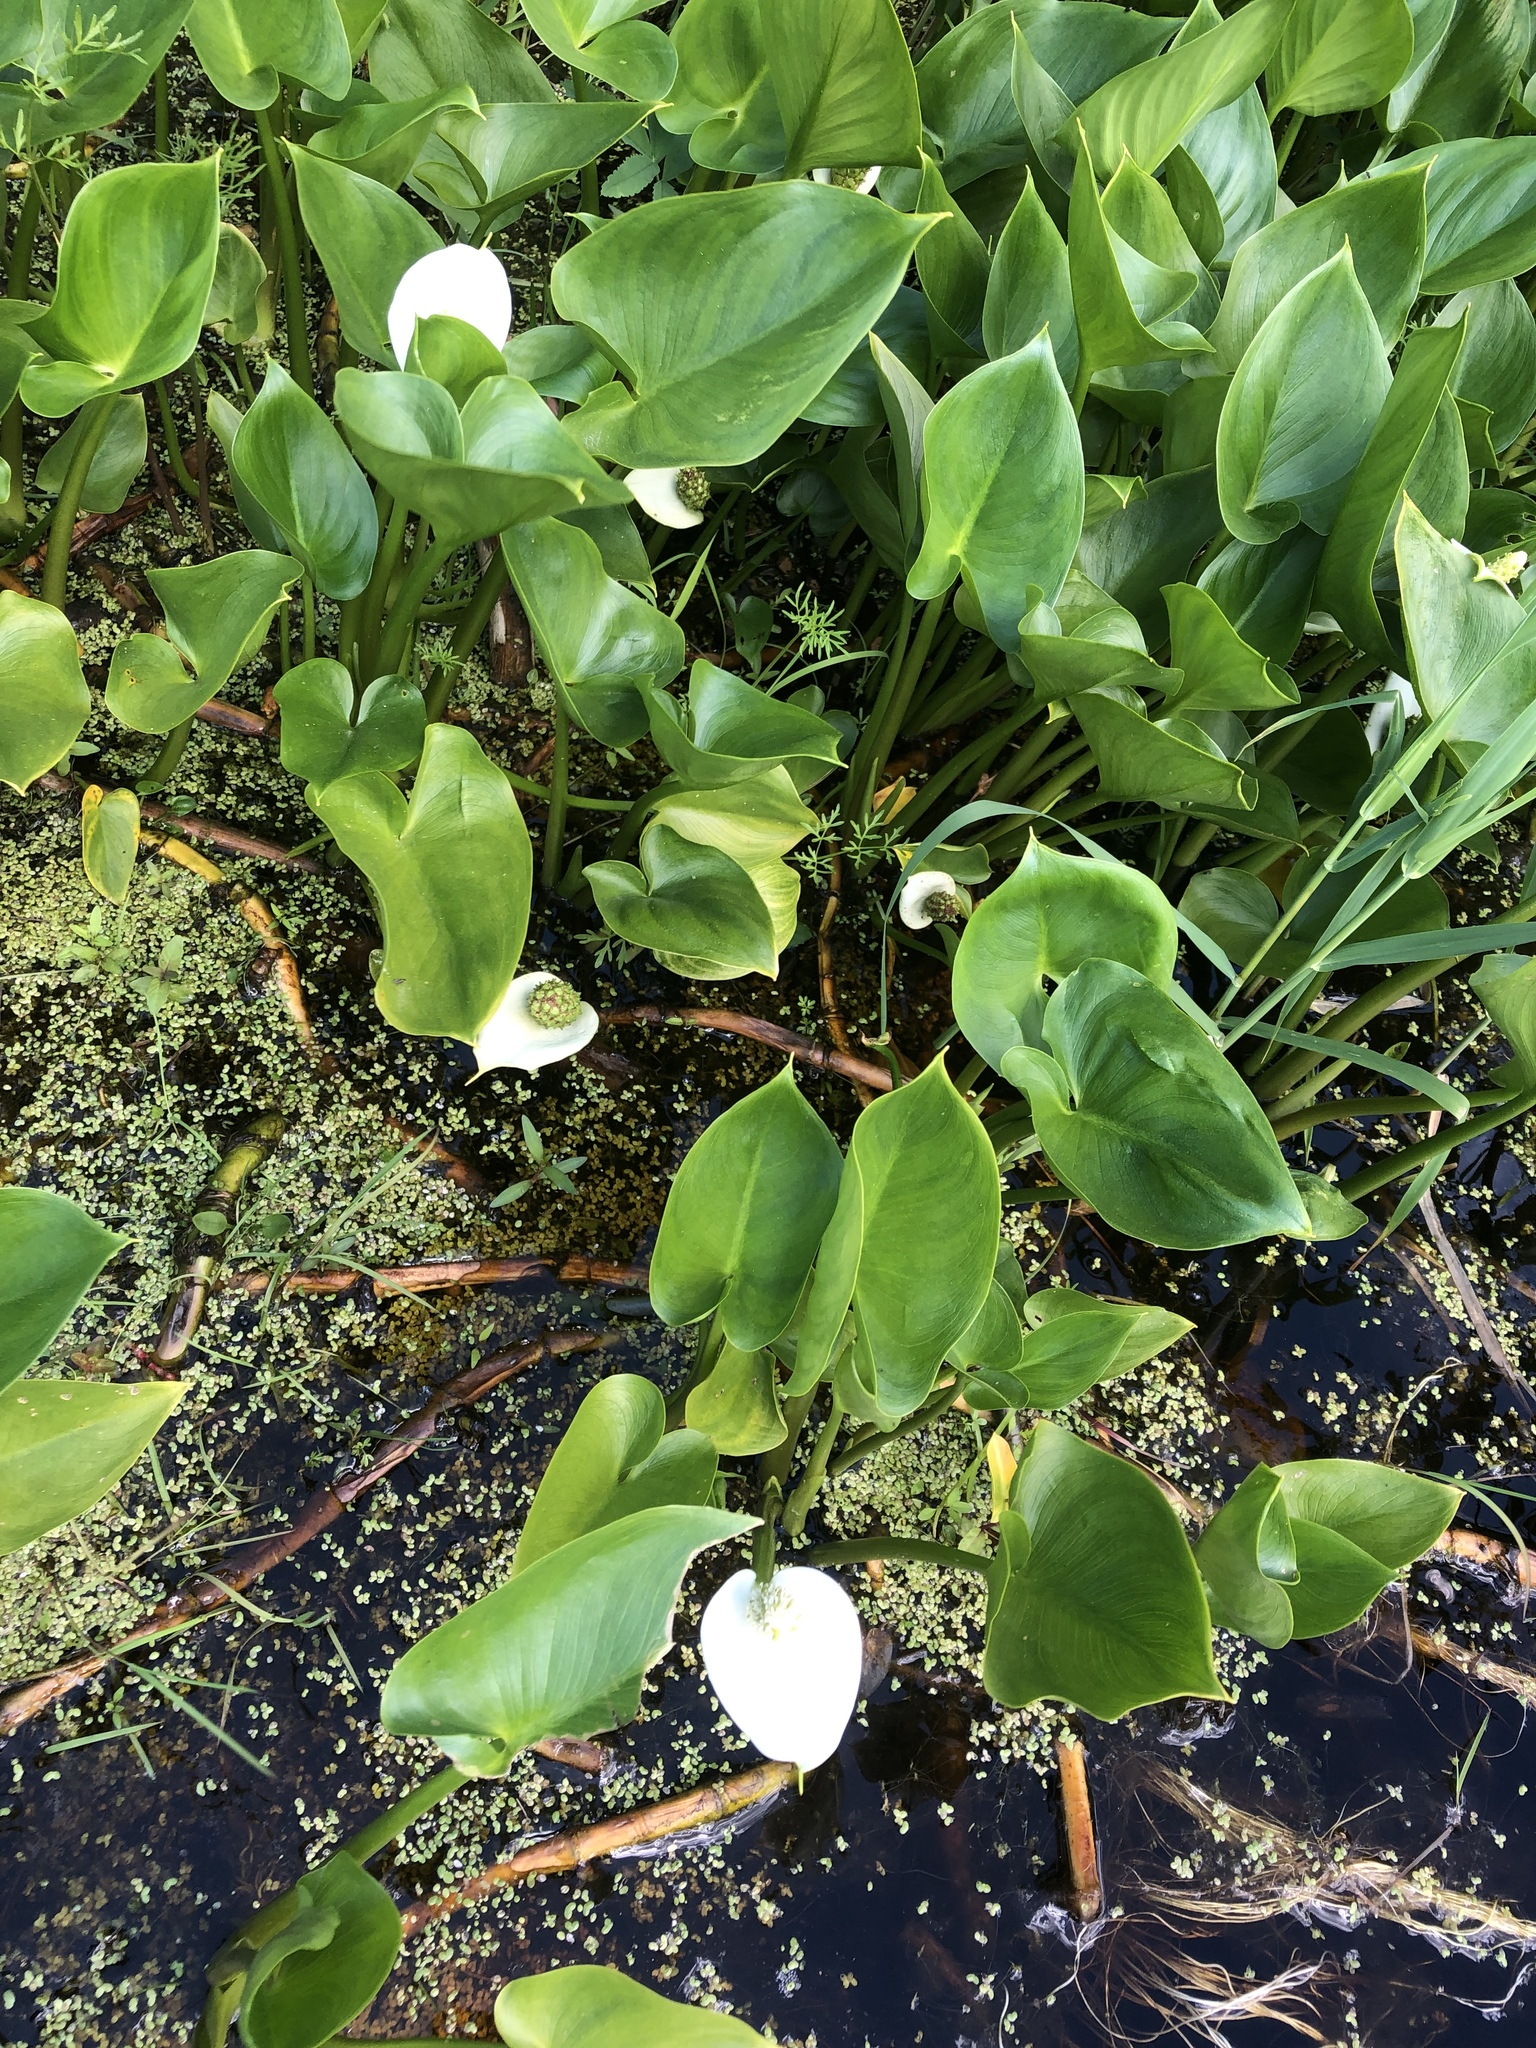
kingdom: Plantae
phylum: Tracheophyta
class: Liliopsida
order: Alismatales
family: Araceae
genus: Calla
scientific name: Calla palustris
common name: Bog arum
